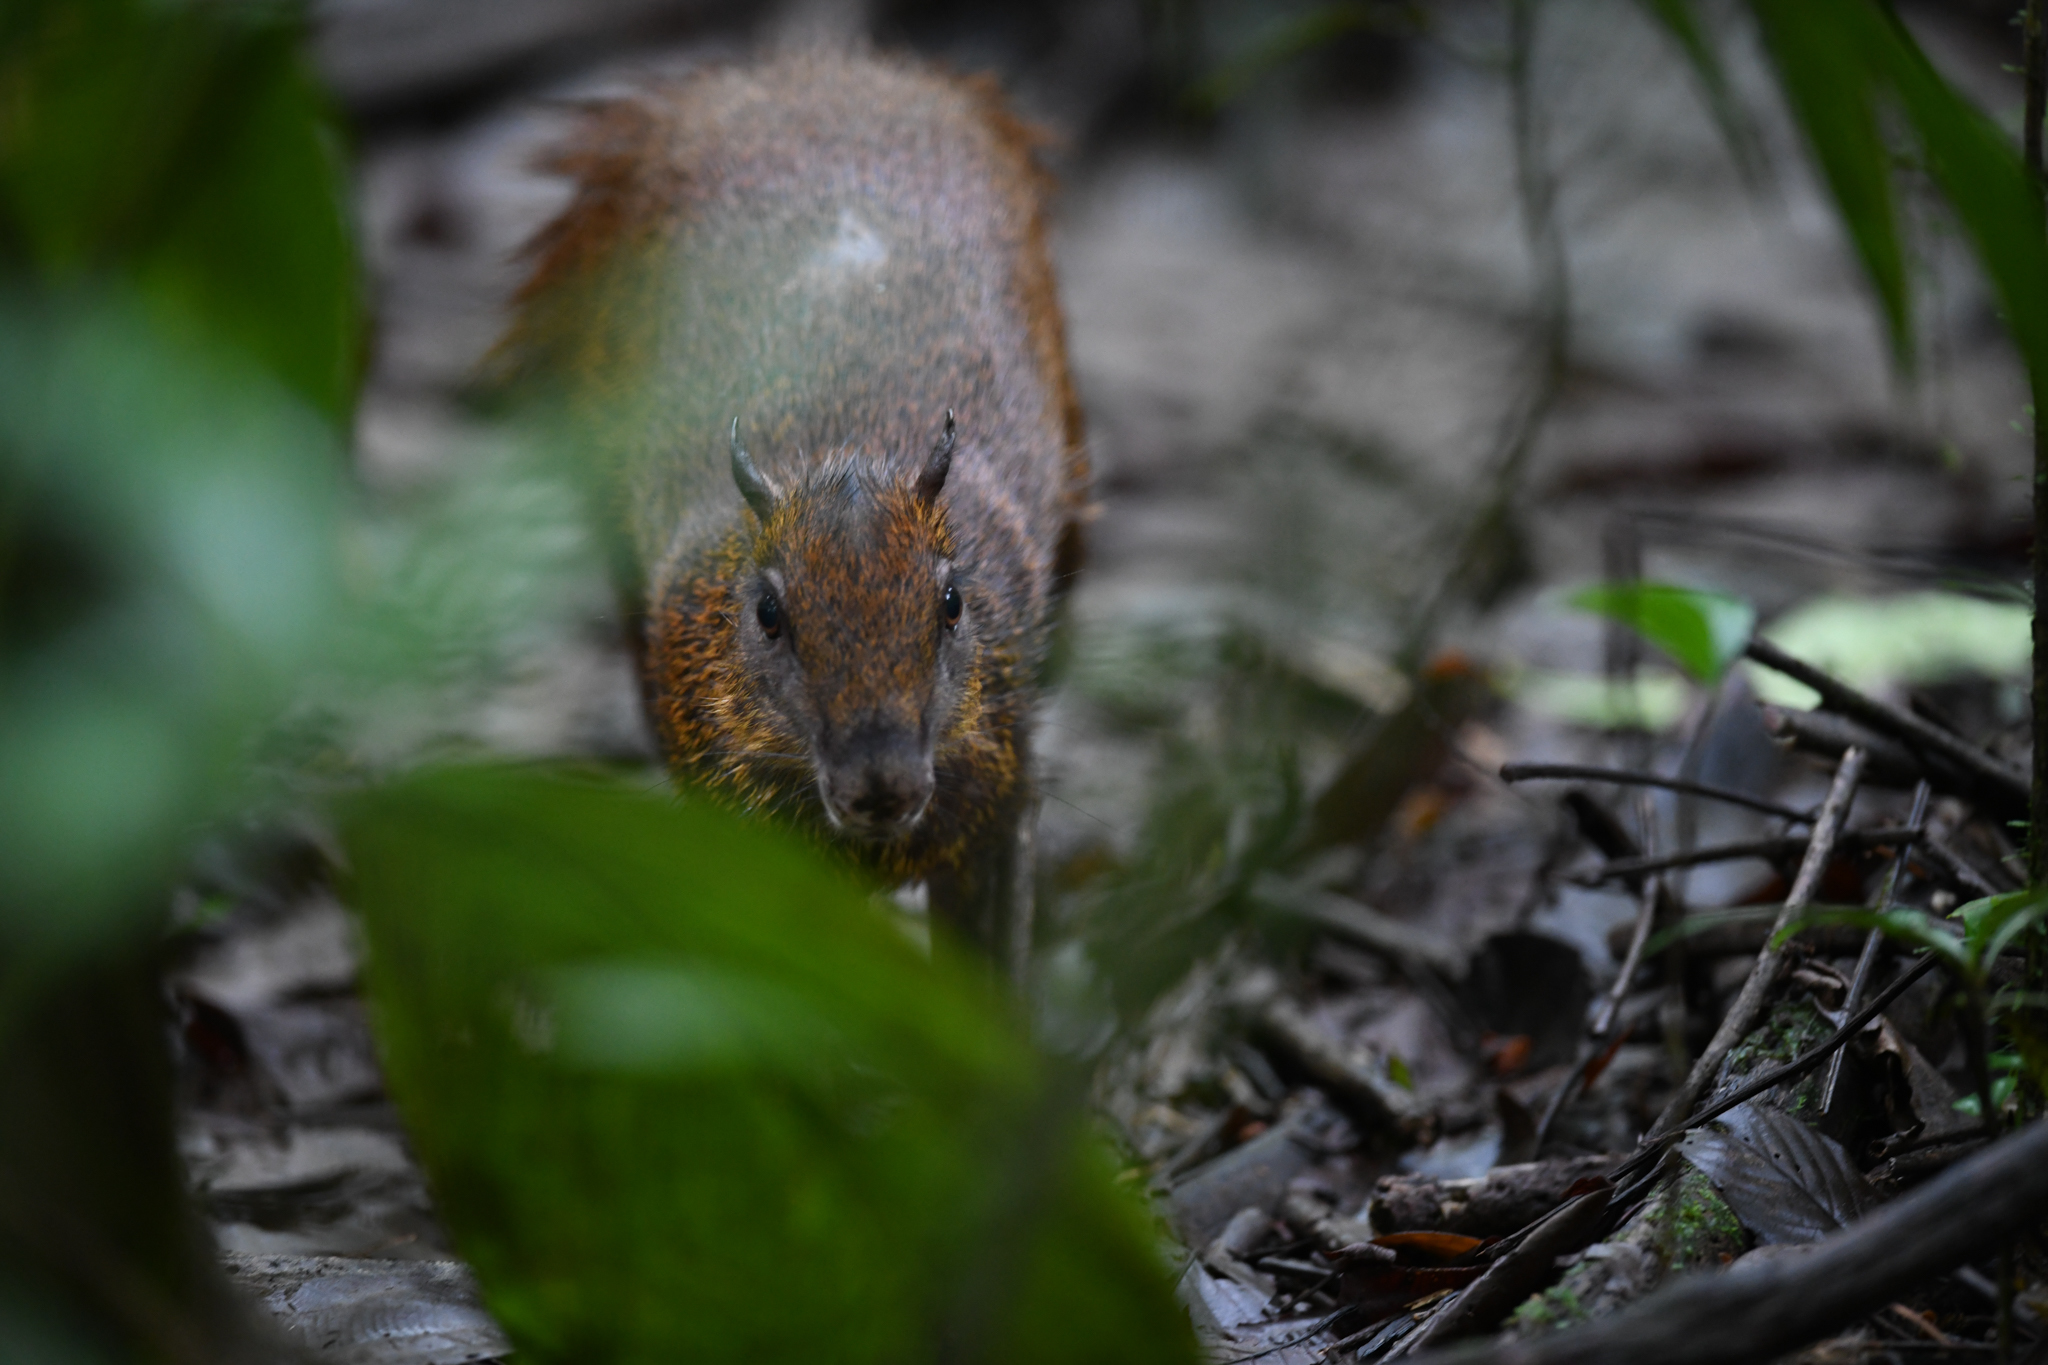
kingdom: Animalia
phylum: Chordata
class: Mammalia
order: Rodentia
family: Dasyproctidae
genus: Dasyprocta
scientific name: Dasyprocta punctata
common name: Central american agouti
